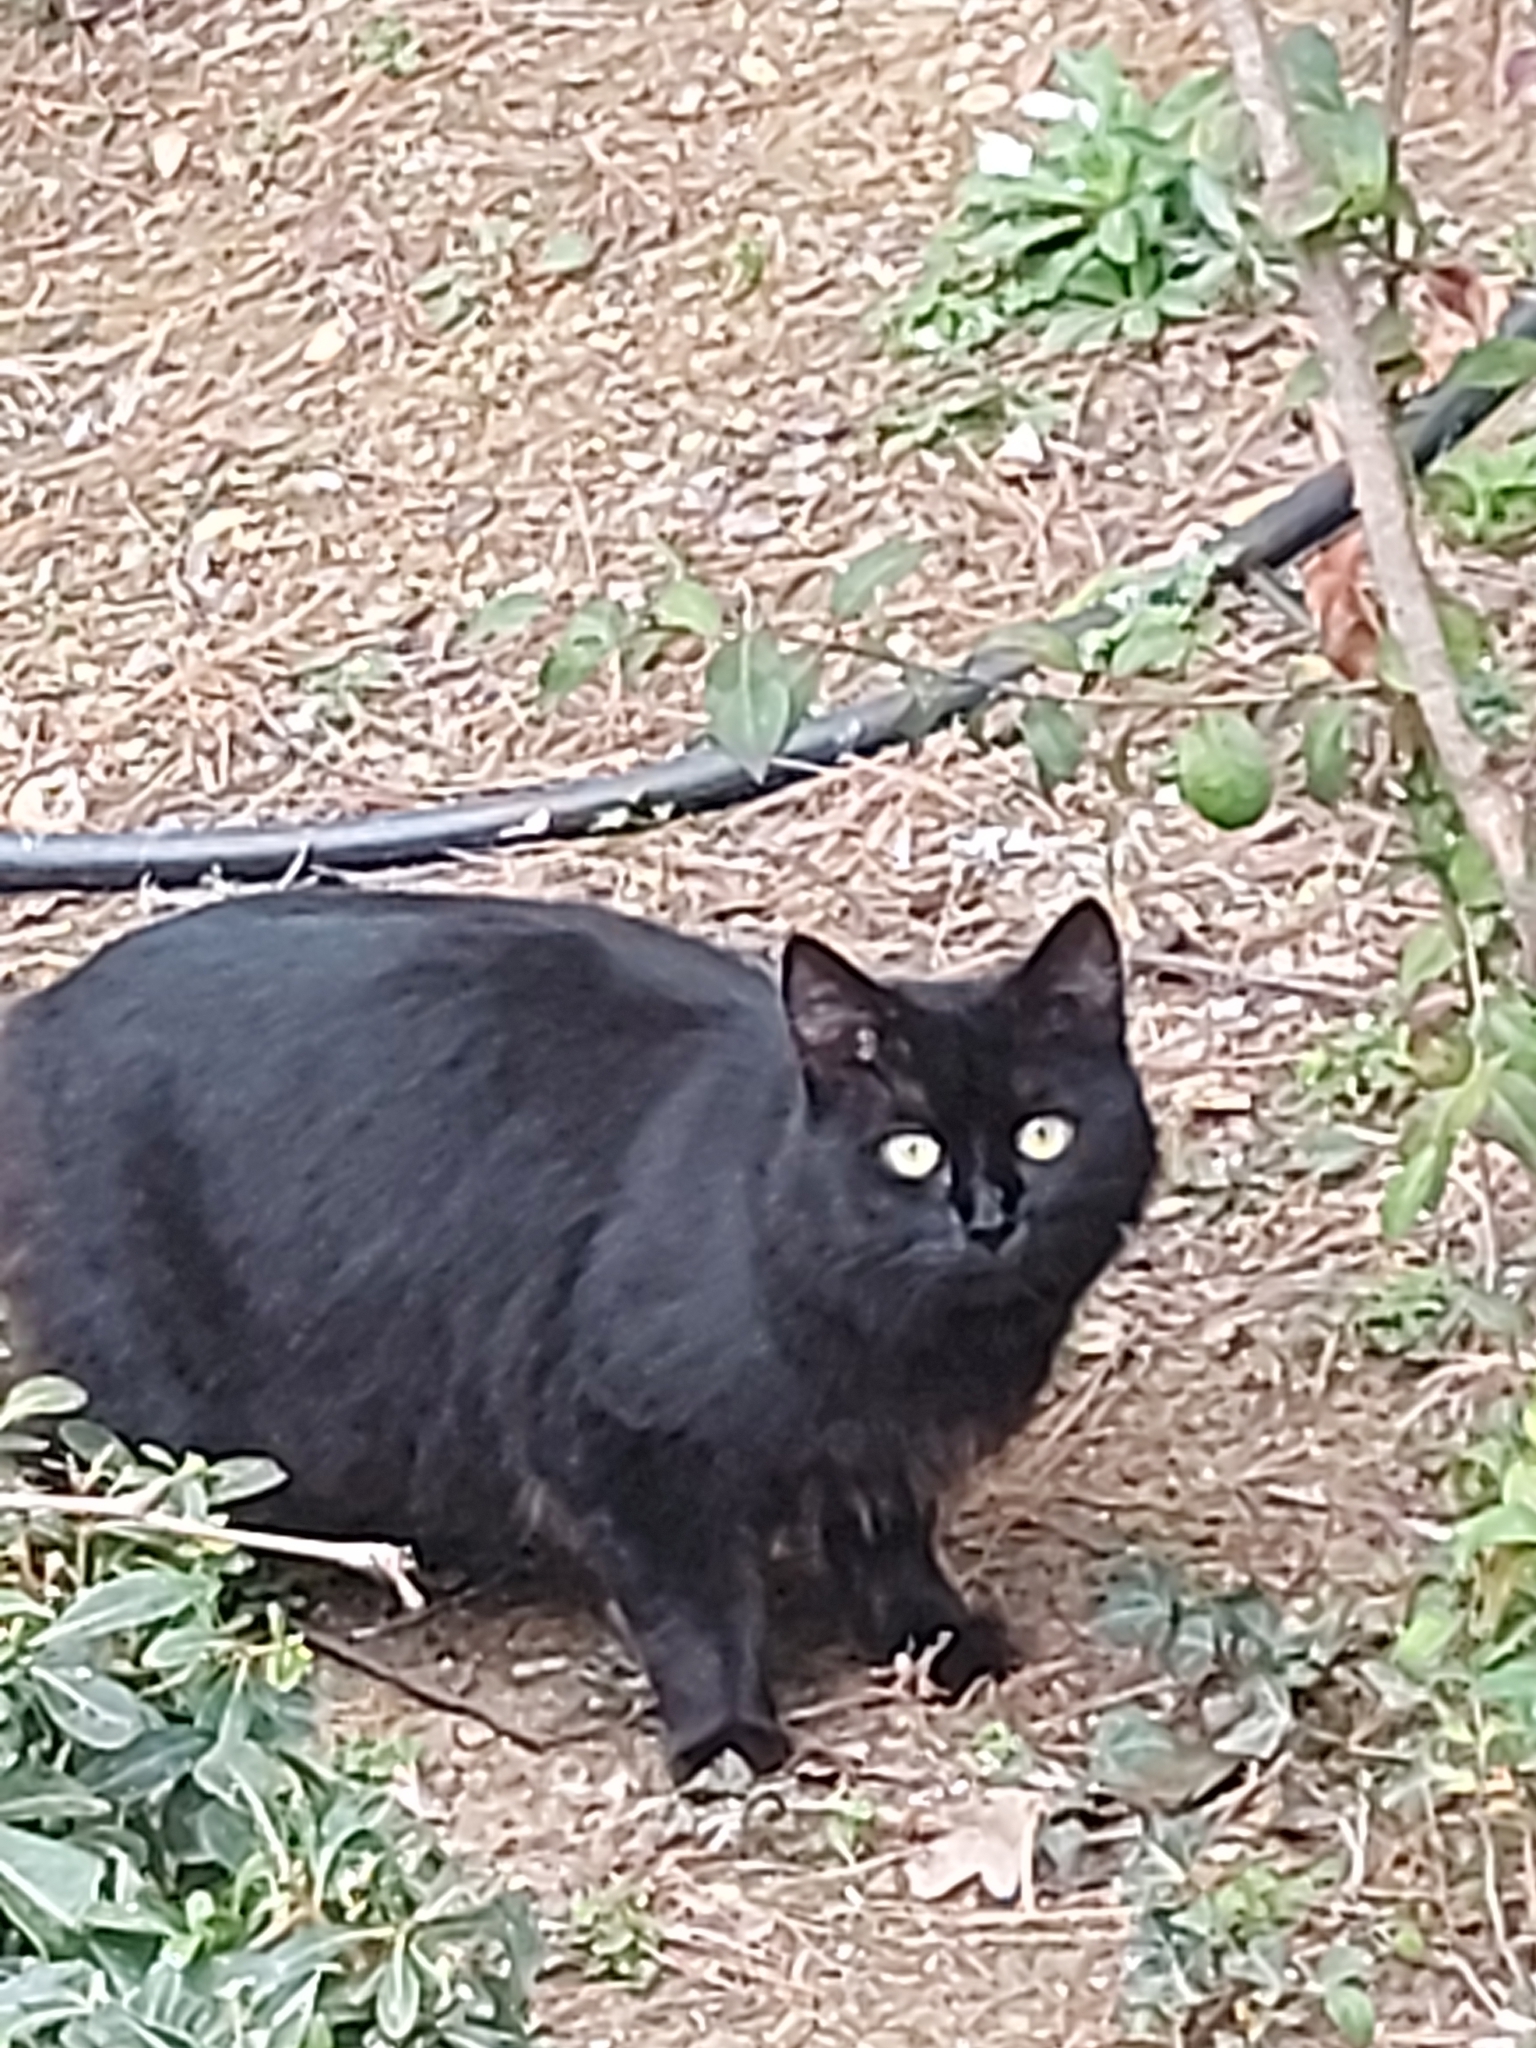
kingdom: Animalia
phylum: Chordata
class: Mammalia
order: Carnivora
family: Felidae
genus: Felis
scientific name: Felis catus
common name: Domestic cat
